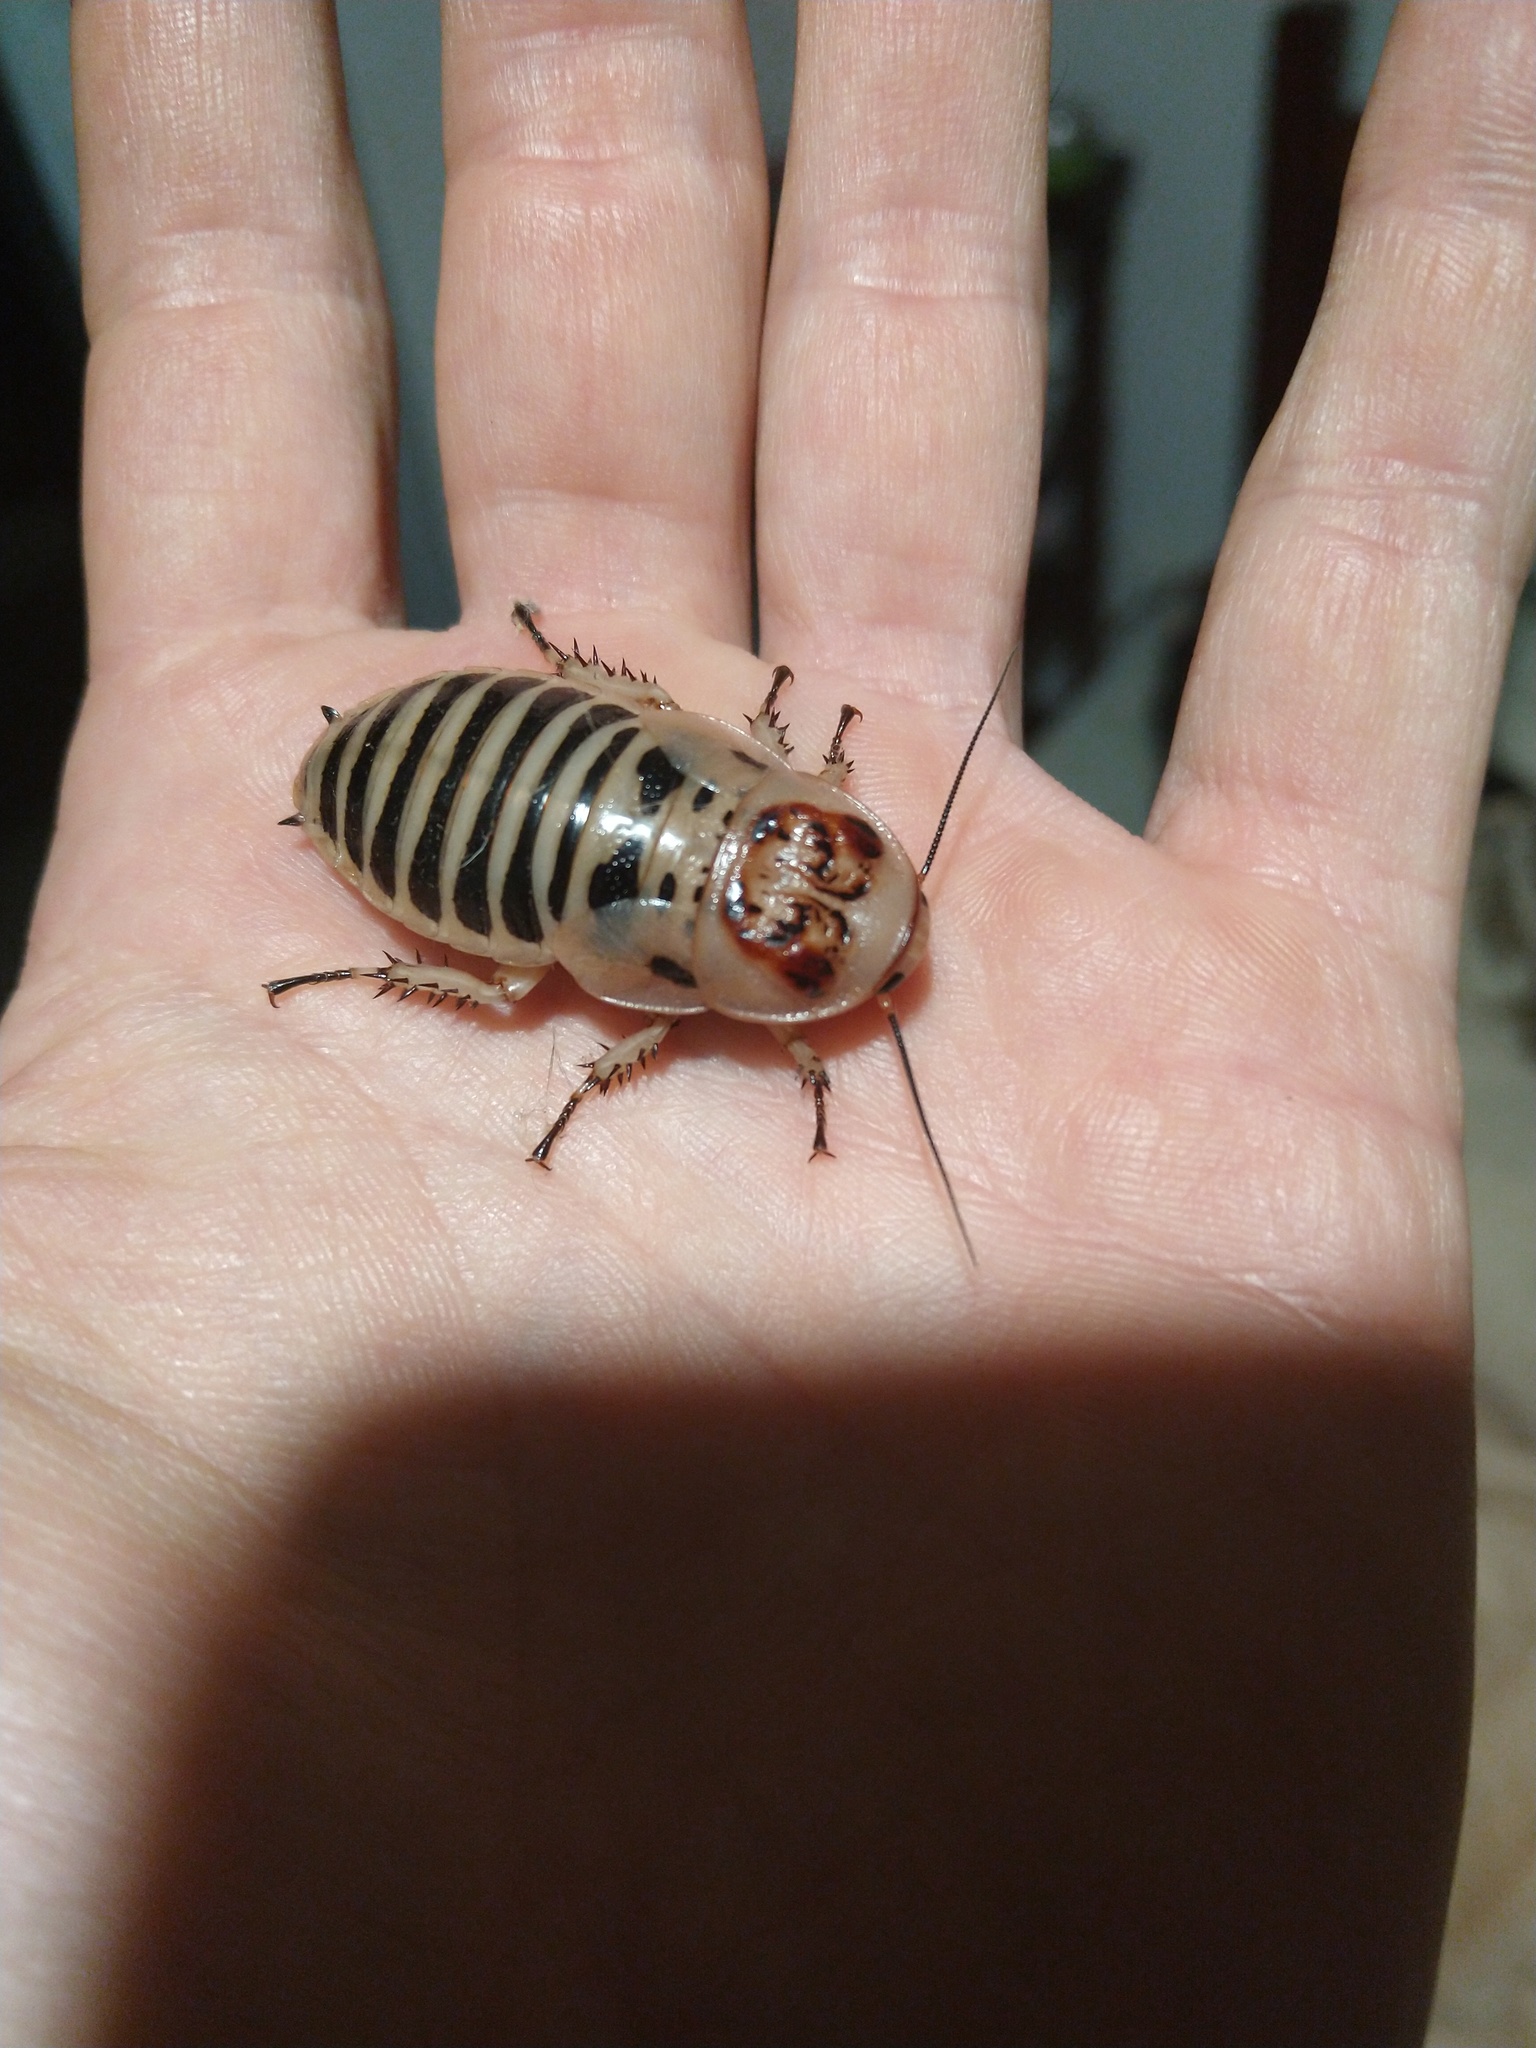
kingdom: Animalia
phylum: Arthropoda
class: Insecta
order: Blattodea
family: Blaberidae
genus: Parahormetica
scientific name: Parahormetica cicatricosa
